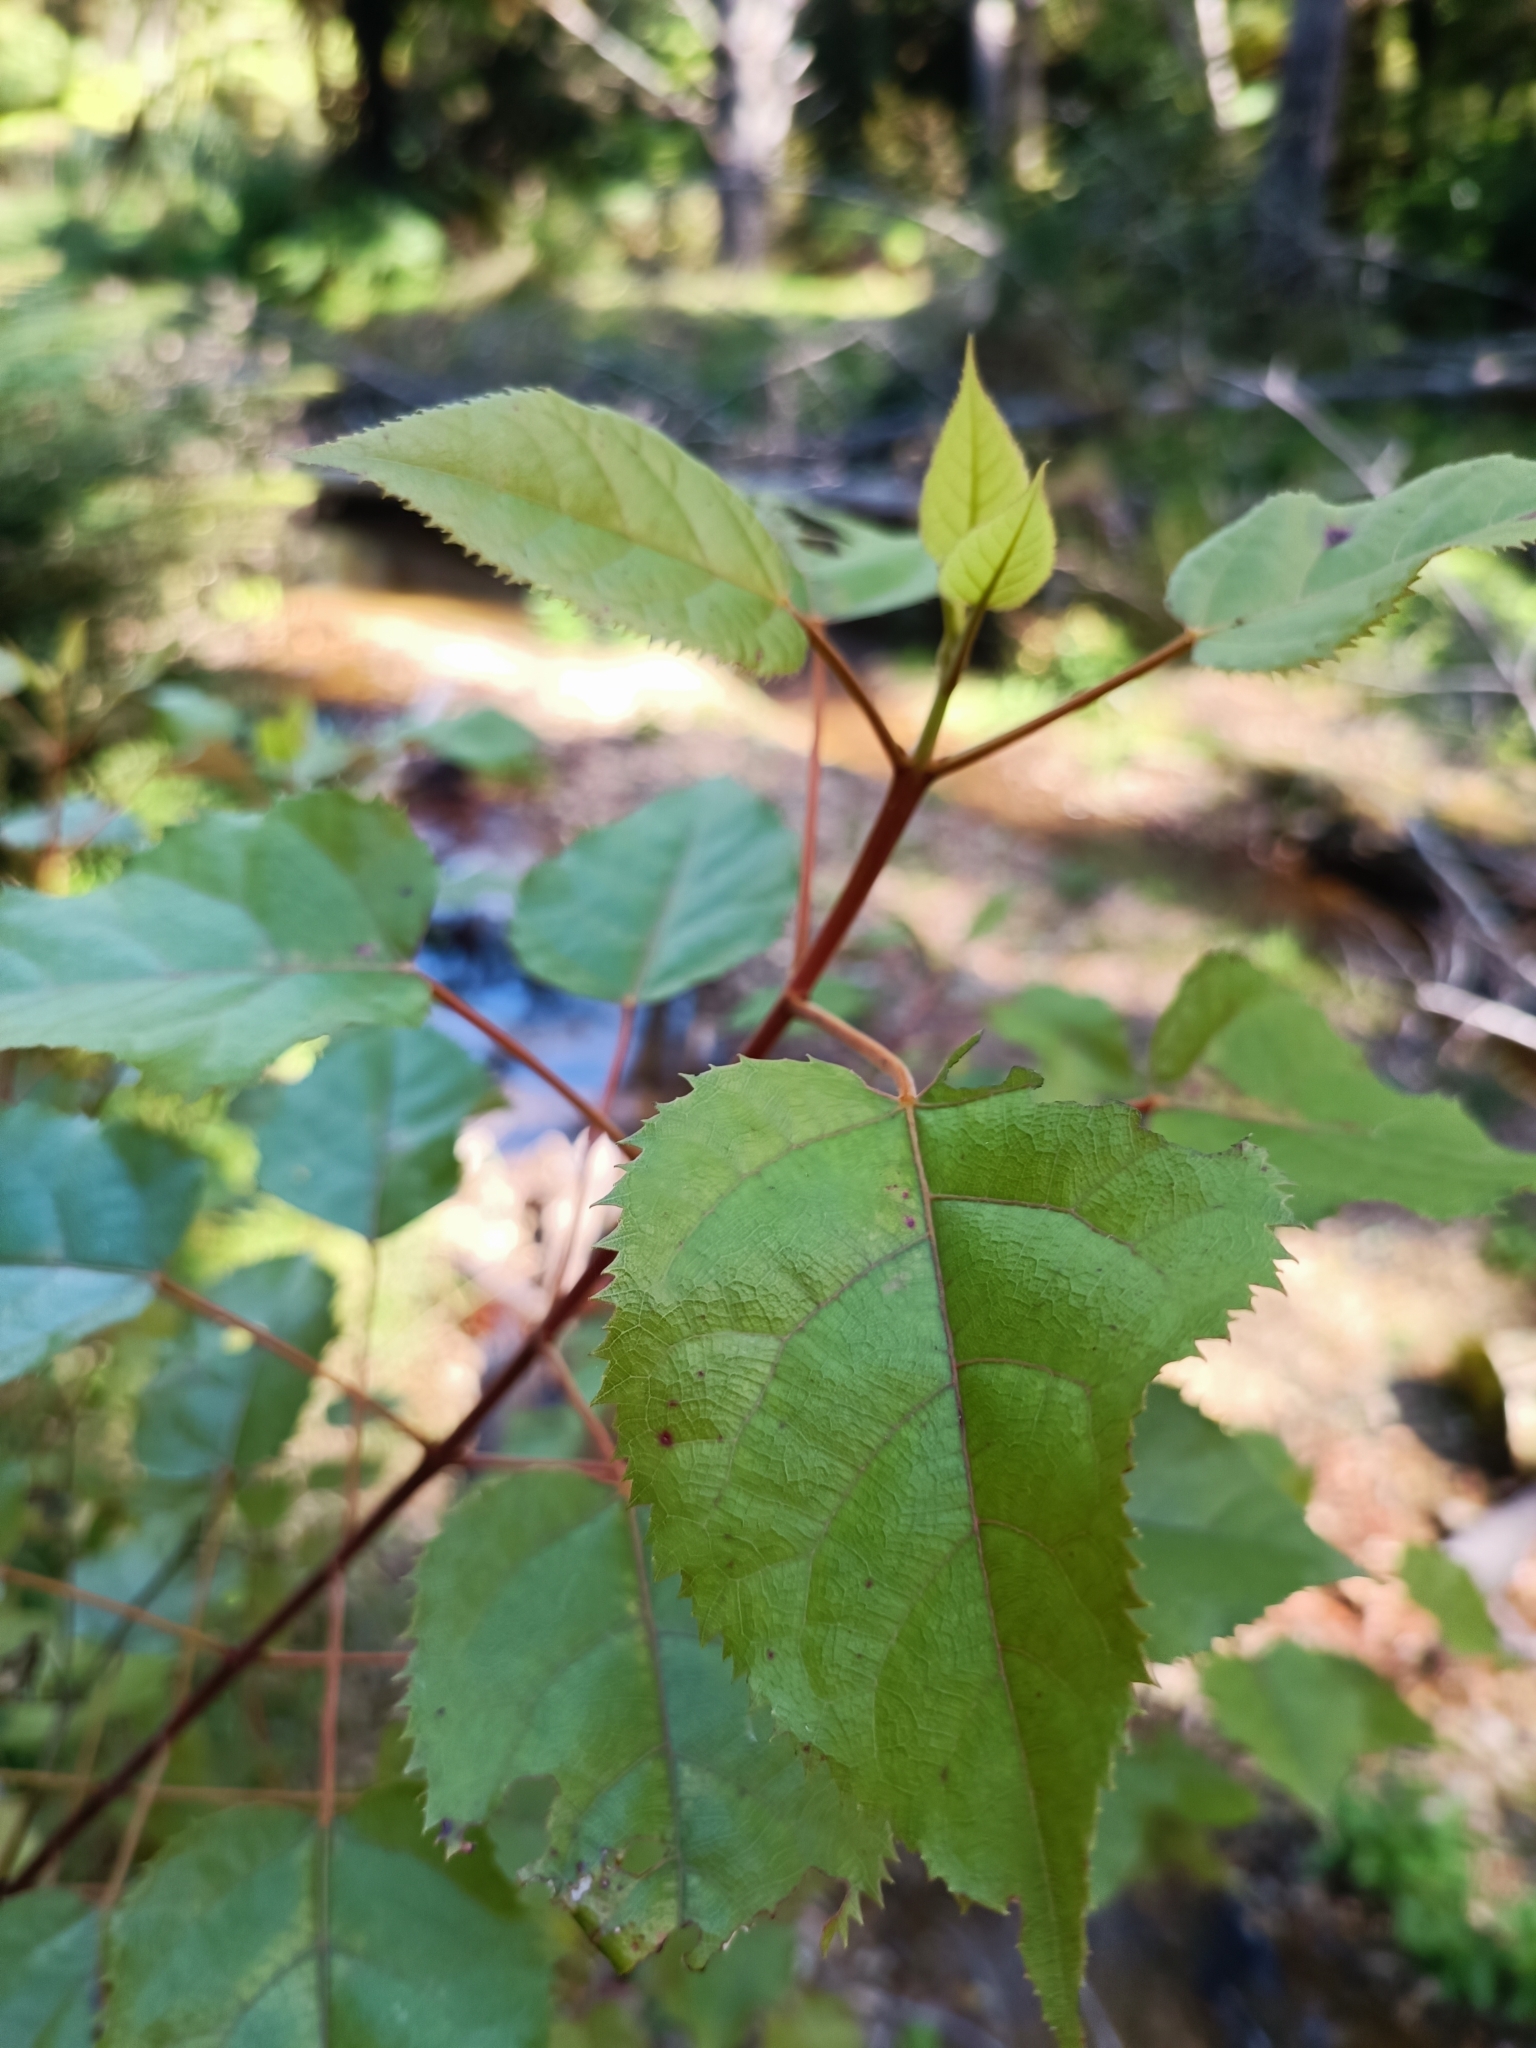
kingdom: Plantae
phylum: Tracheophyta
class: Magnoliopsida
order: Oxalidales
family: Elaeocarpaceae
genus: Aristotelia
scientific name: Aristotelia serrata
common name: New zealand wineberry
